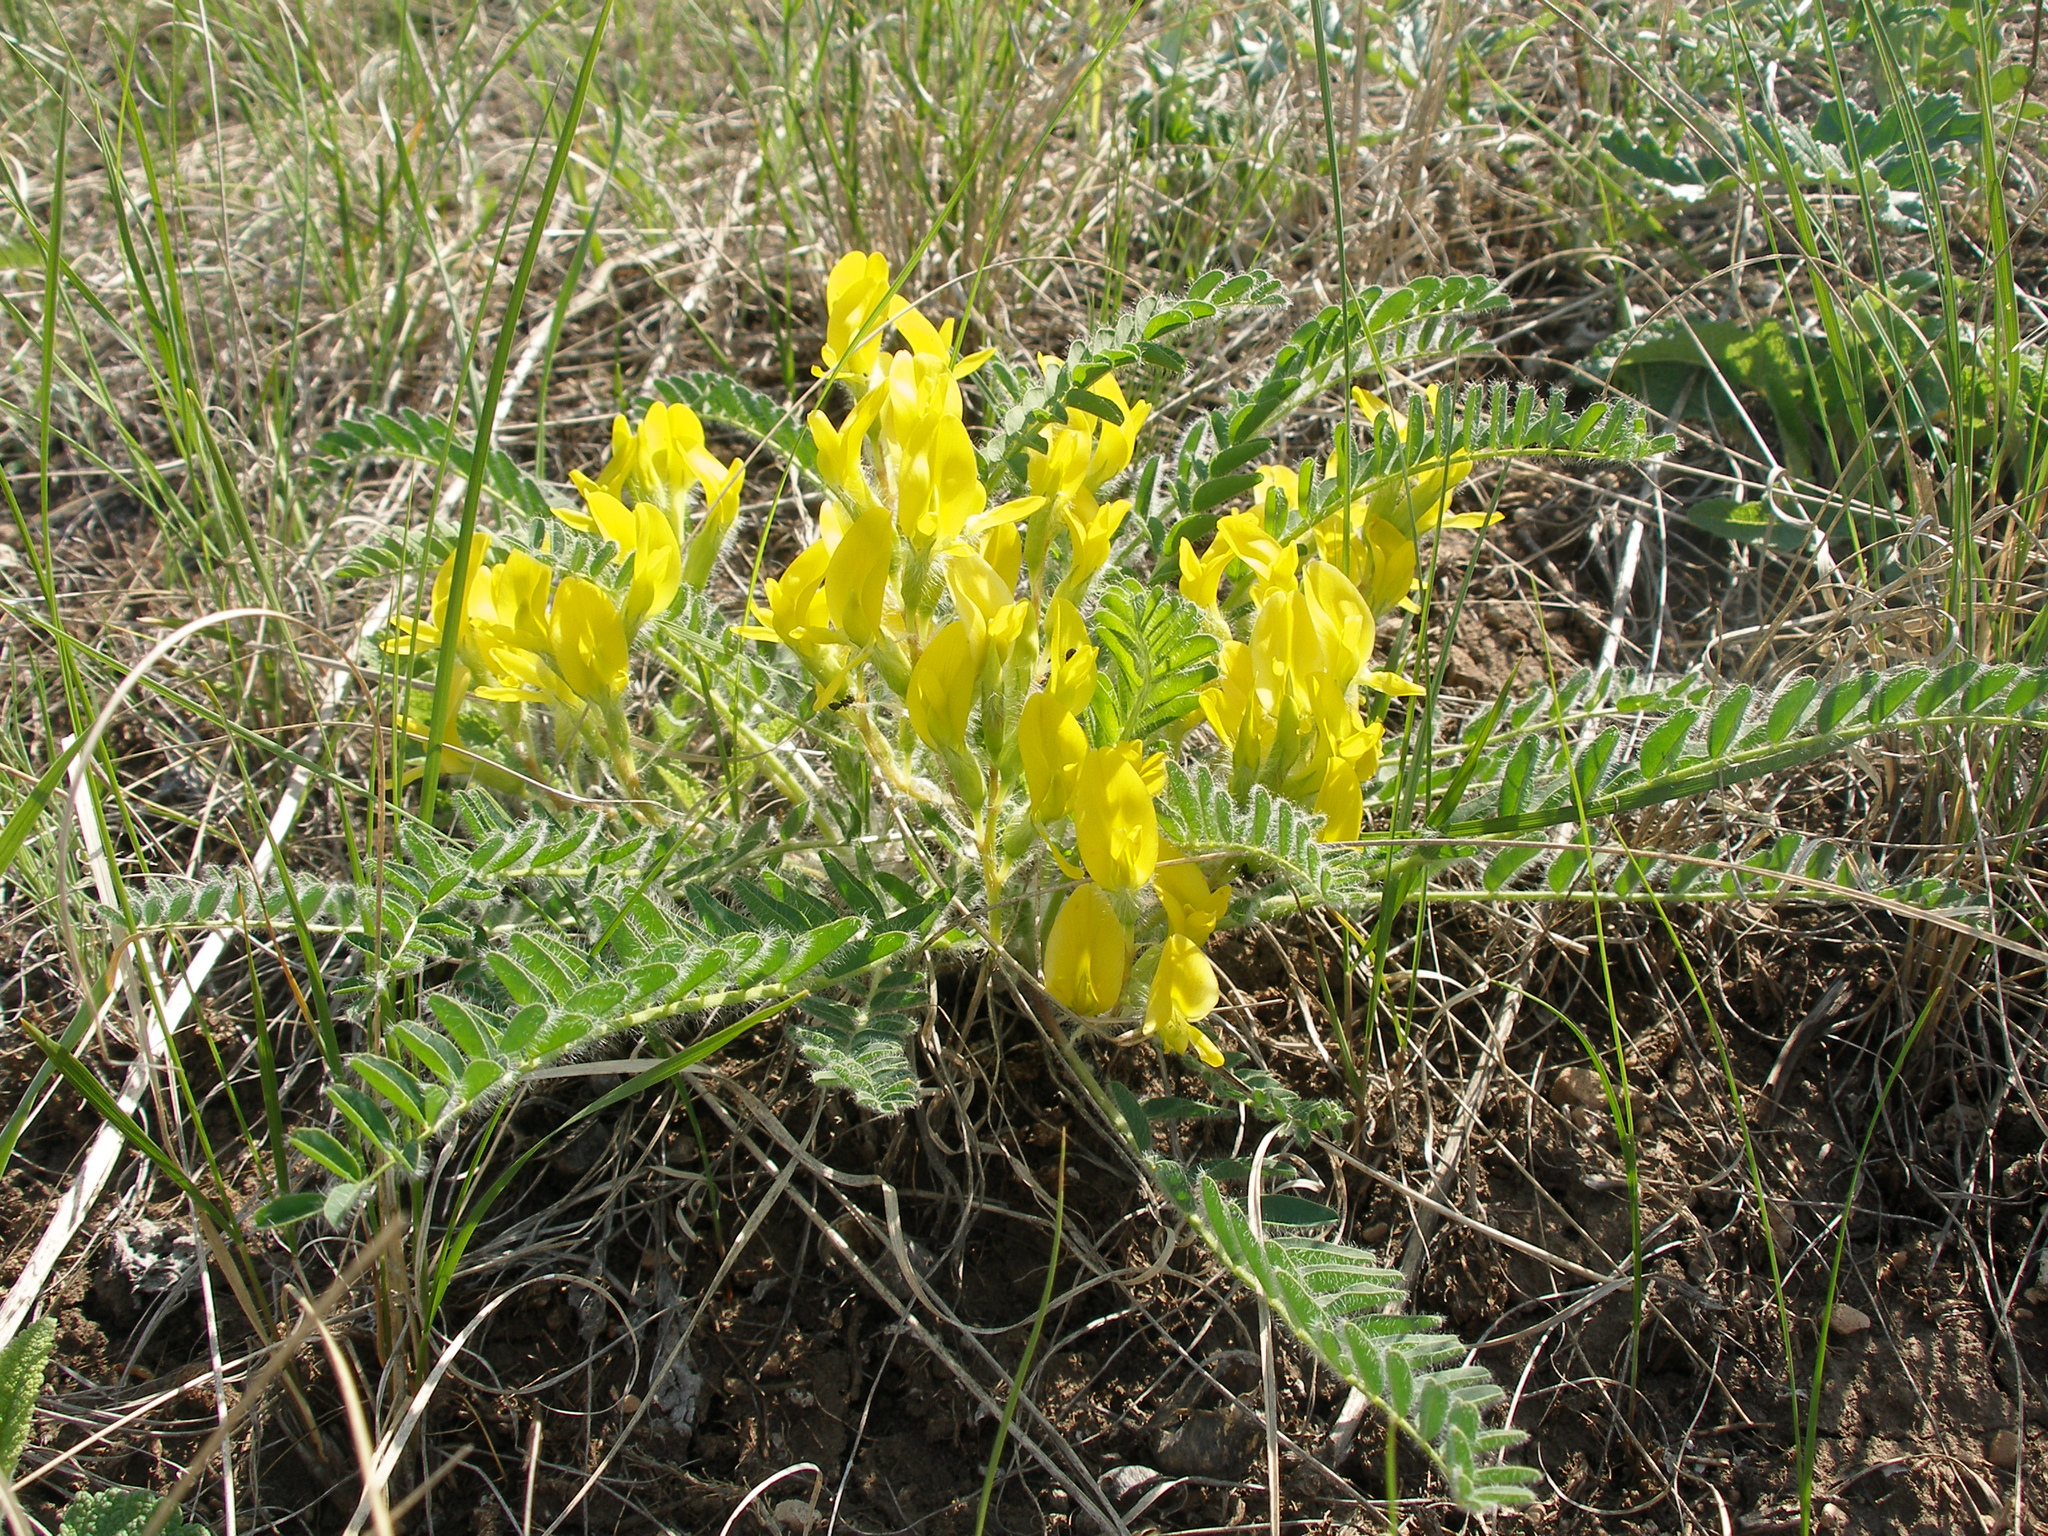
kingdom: Plantae
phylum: Tracheophyta
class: Magnoliopsida
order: Fabales
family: Fabaceae
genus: Astragalus
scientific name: Astragalus wolgensis
